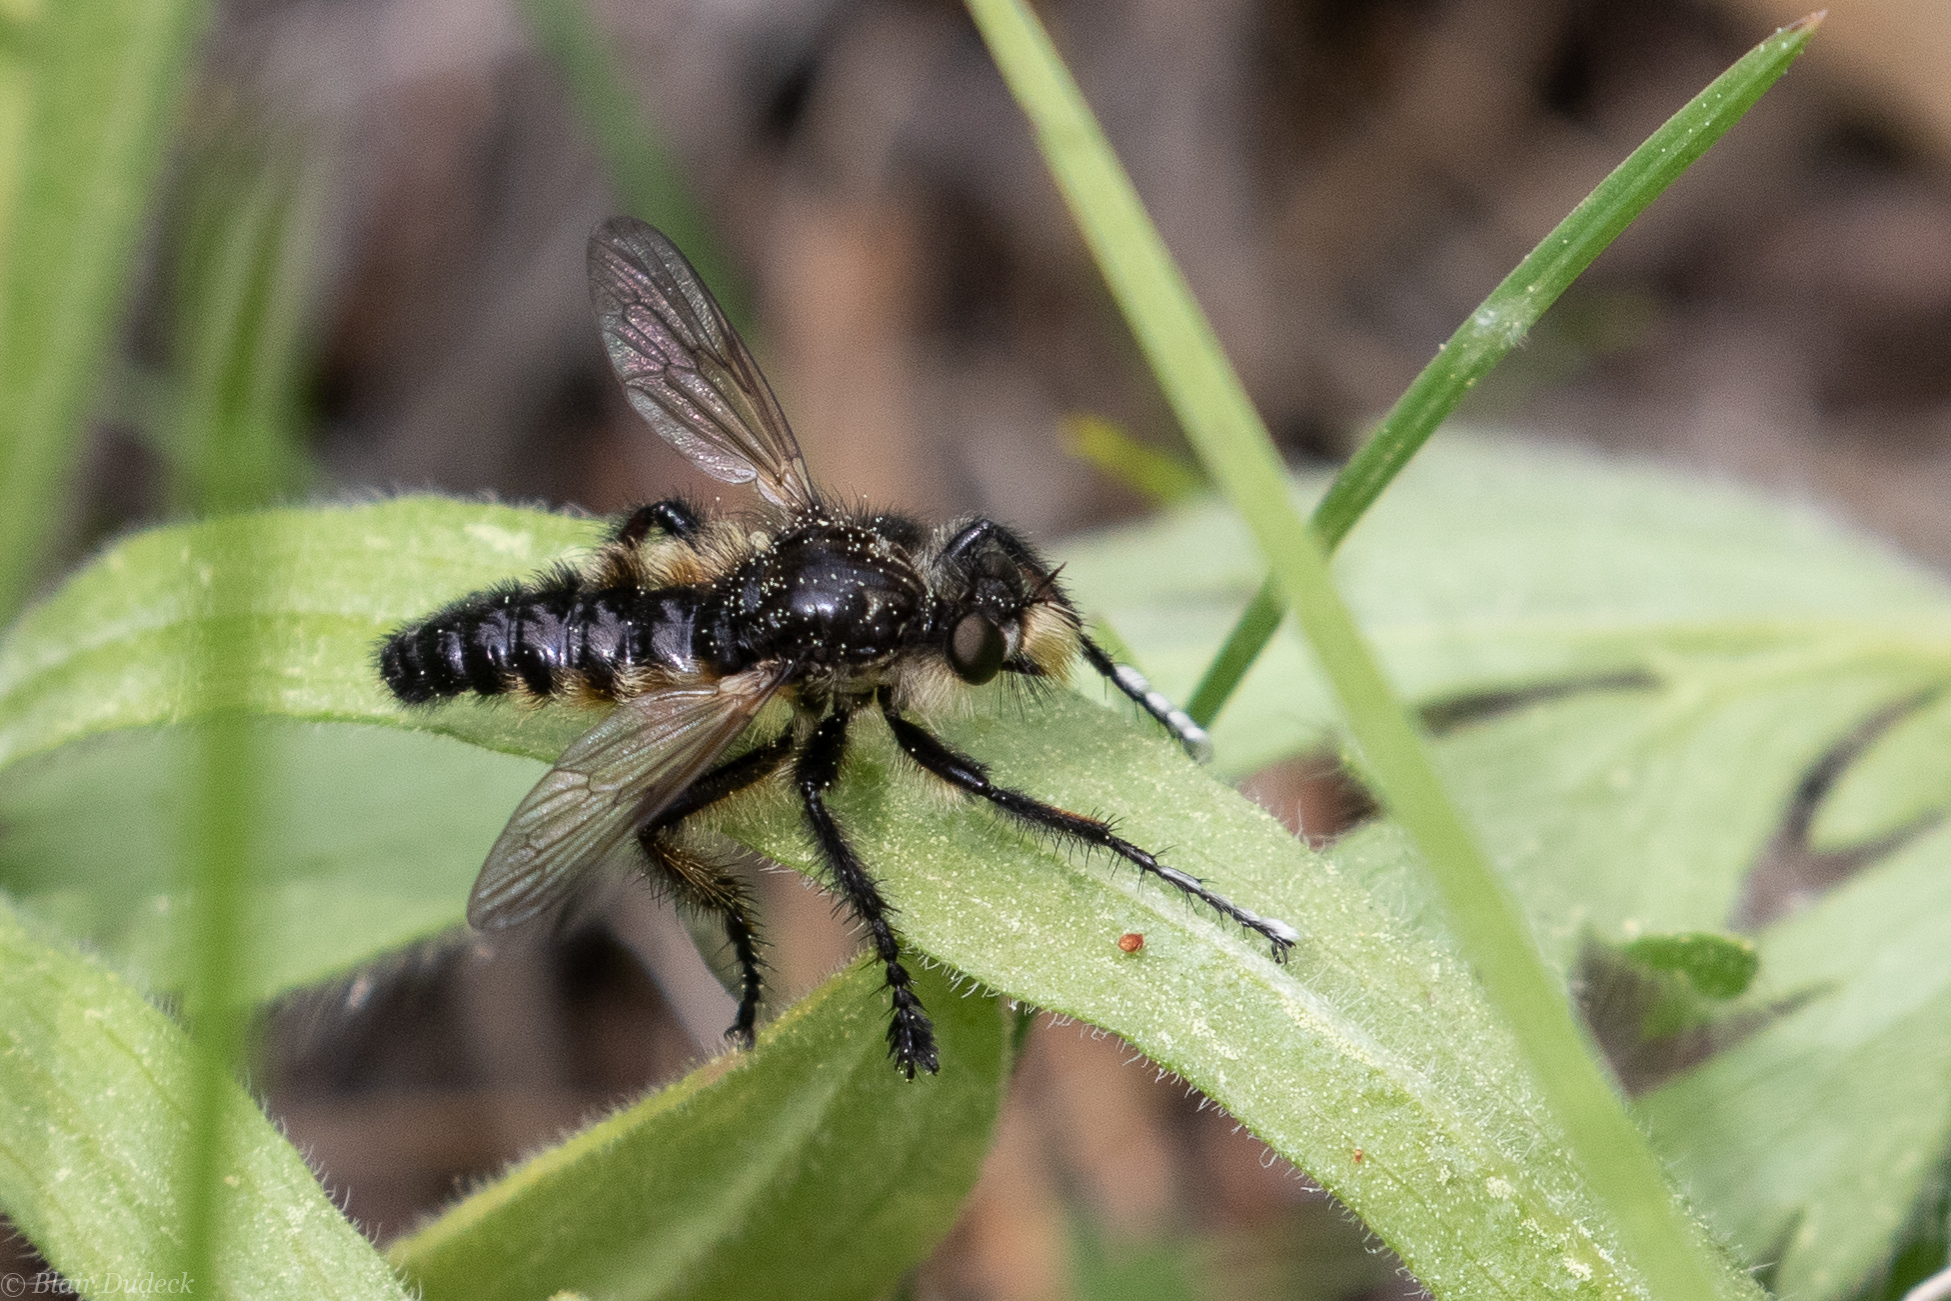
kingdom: Animalia
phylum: Arthropoda
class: Insecta
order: Diptera
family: Asilidae
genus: Cyrtopogon
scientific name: Cyrtopogon willistoni
